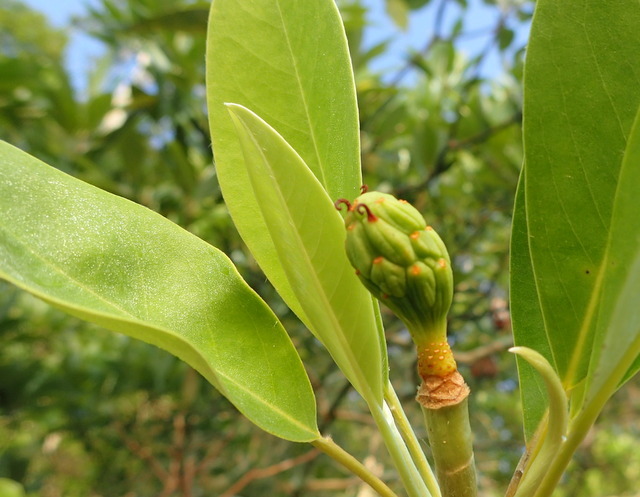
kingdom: Plantae
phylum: Tracheophyta
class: Magnoliopsida
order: Magnoliales
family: Magnoliaceae
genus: Magnolia
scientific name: Magnolia virginiana
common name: Swamp bay
